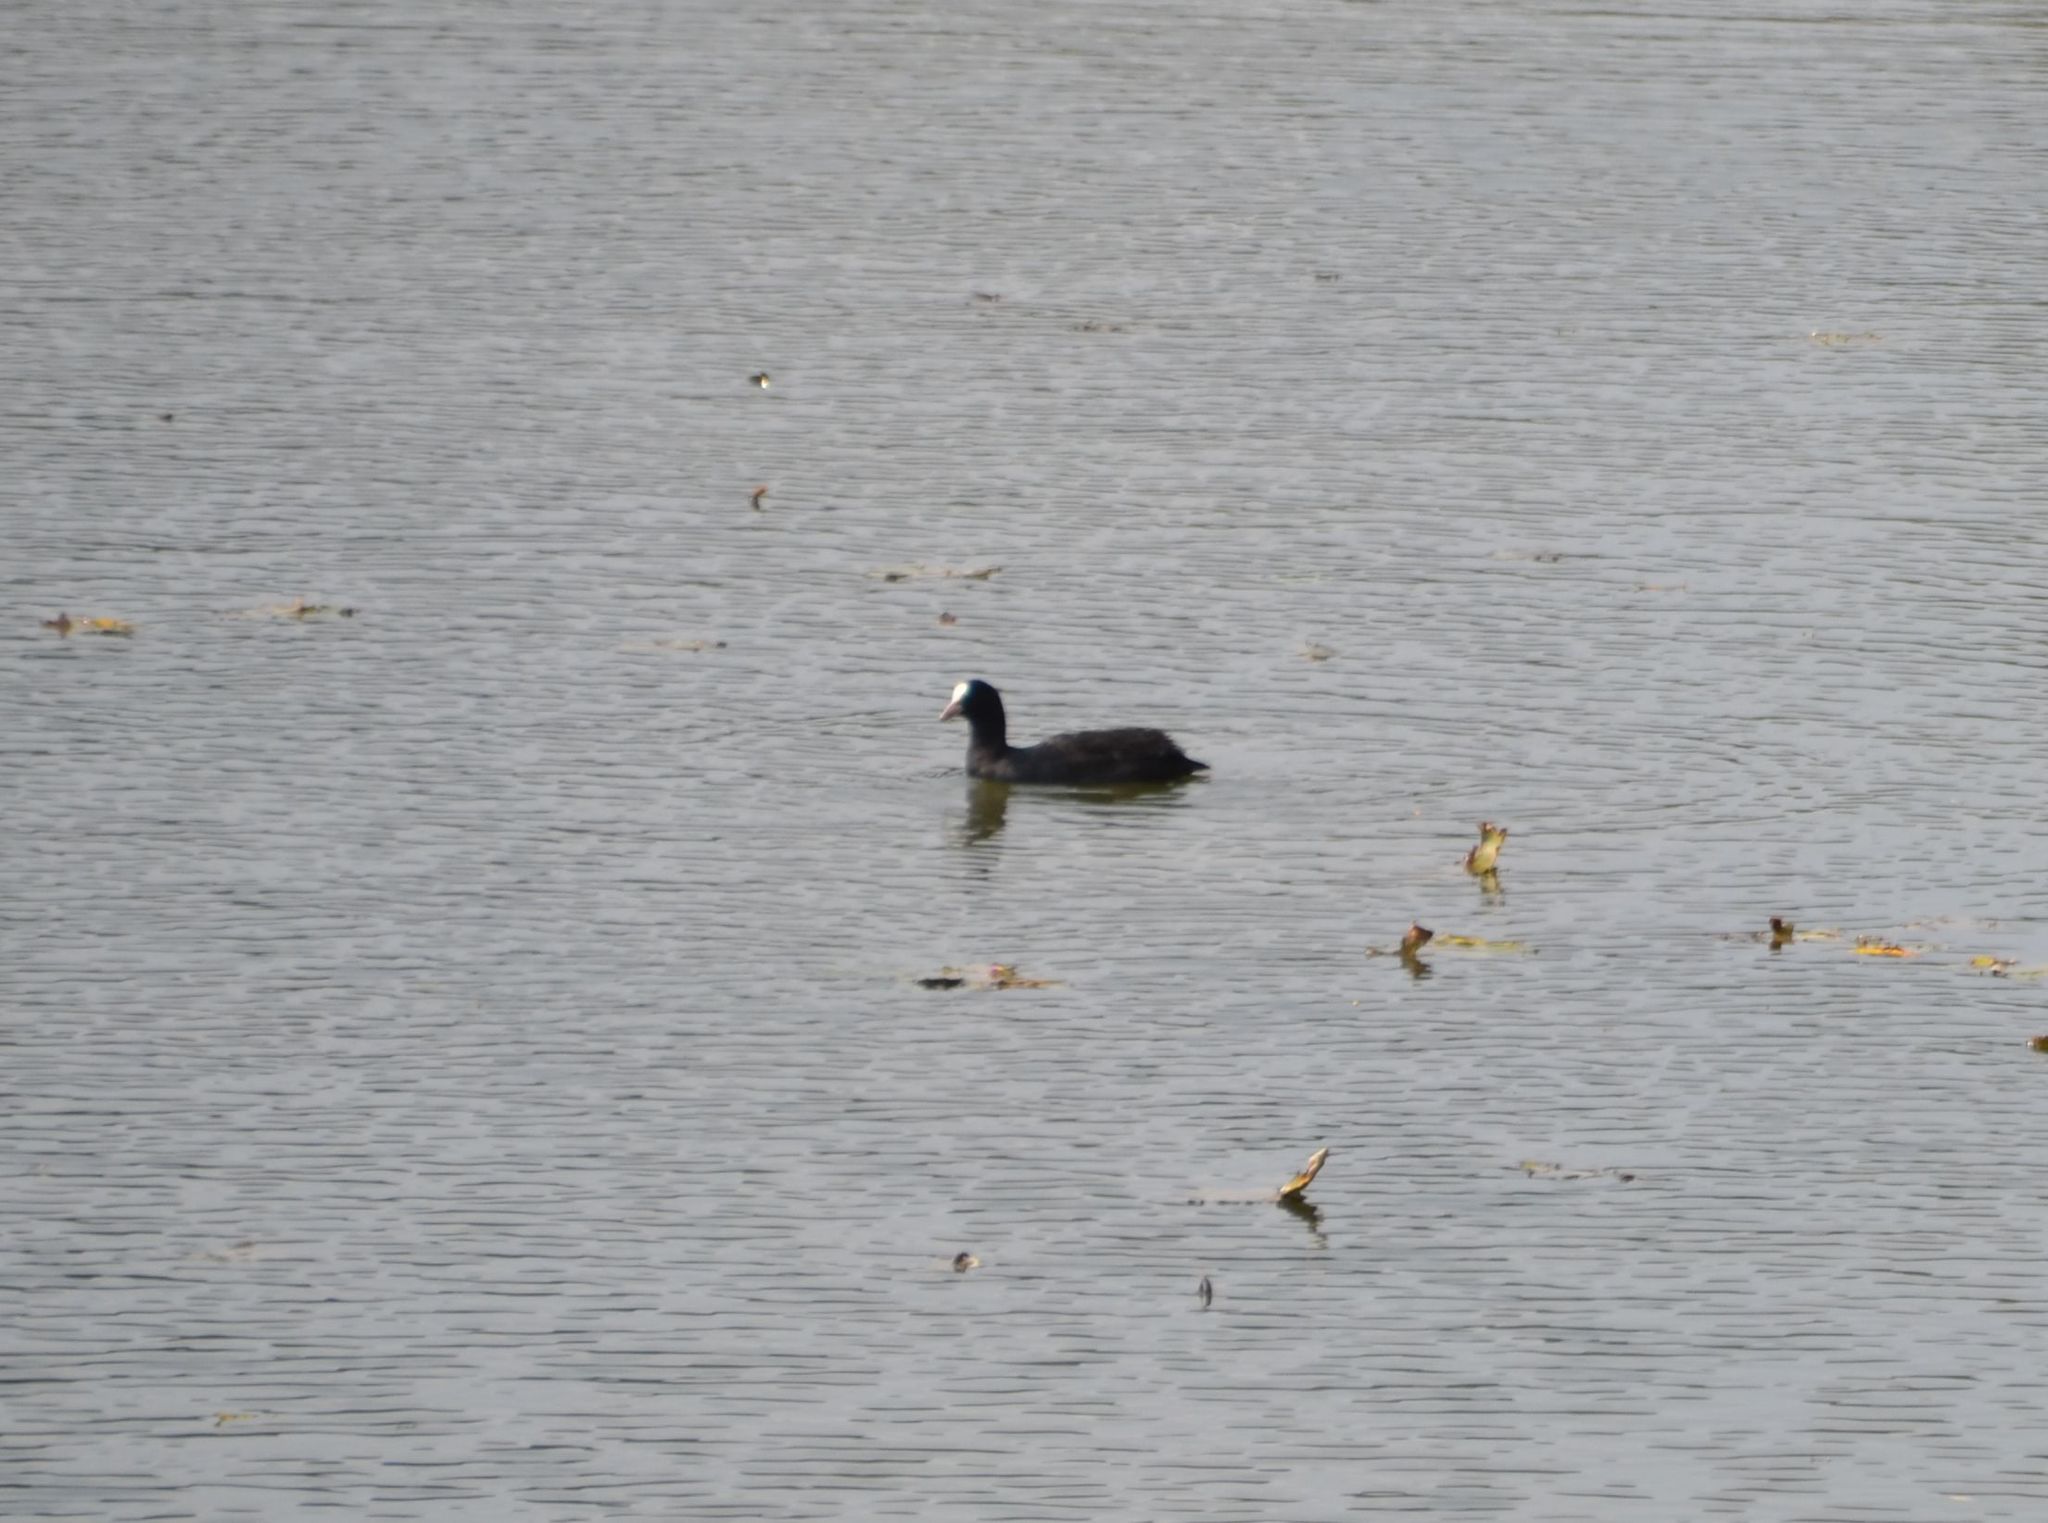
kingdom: Animalia
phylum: Chordata
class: Aves
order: Gruiformes
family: Rallidae
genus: Fulica
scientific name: Fulica atra
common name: Eurasian coot
